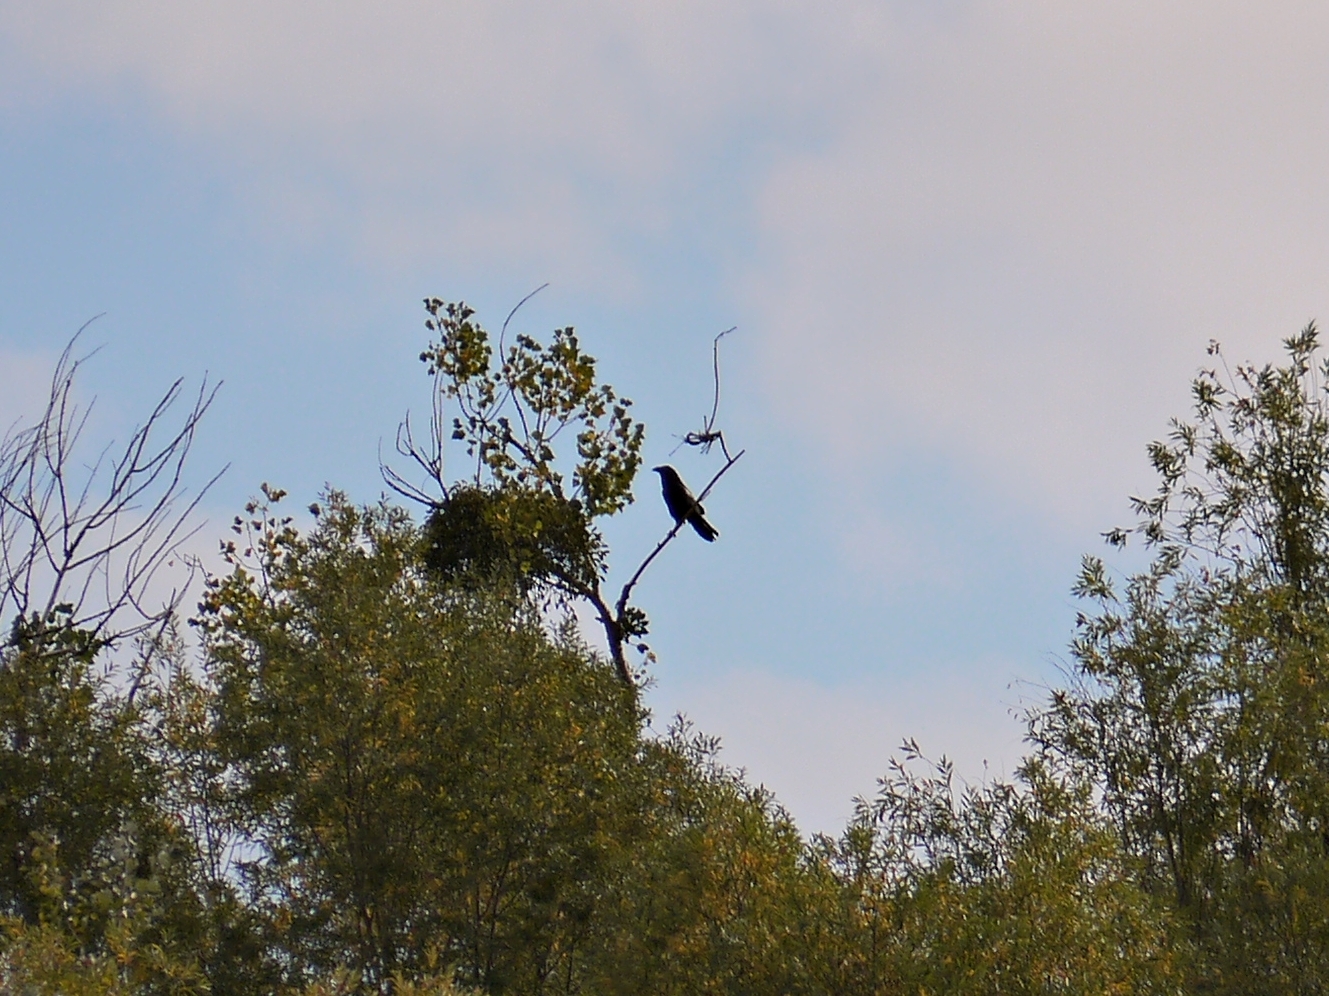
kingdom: Animalia
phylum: Chordata
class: Aves
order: Passeriformes
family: Corvidae
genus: Corvus
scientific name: Corvus corax
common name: Common raven
